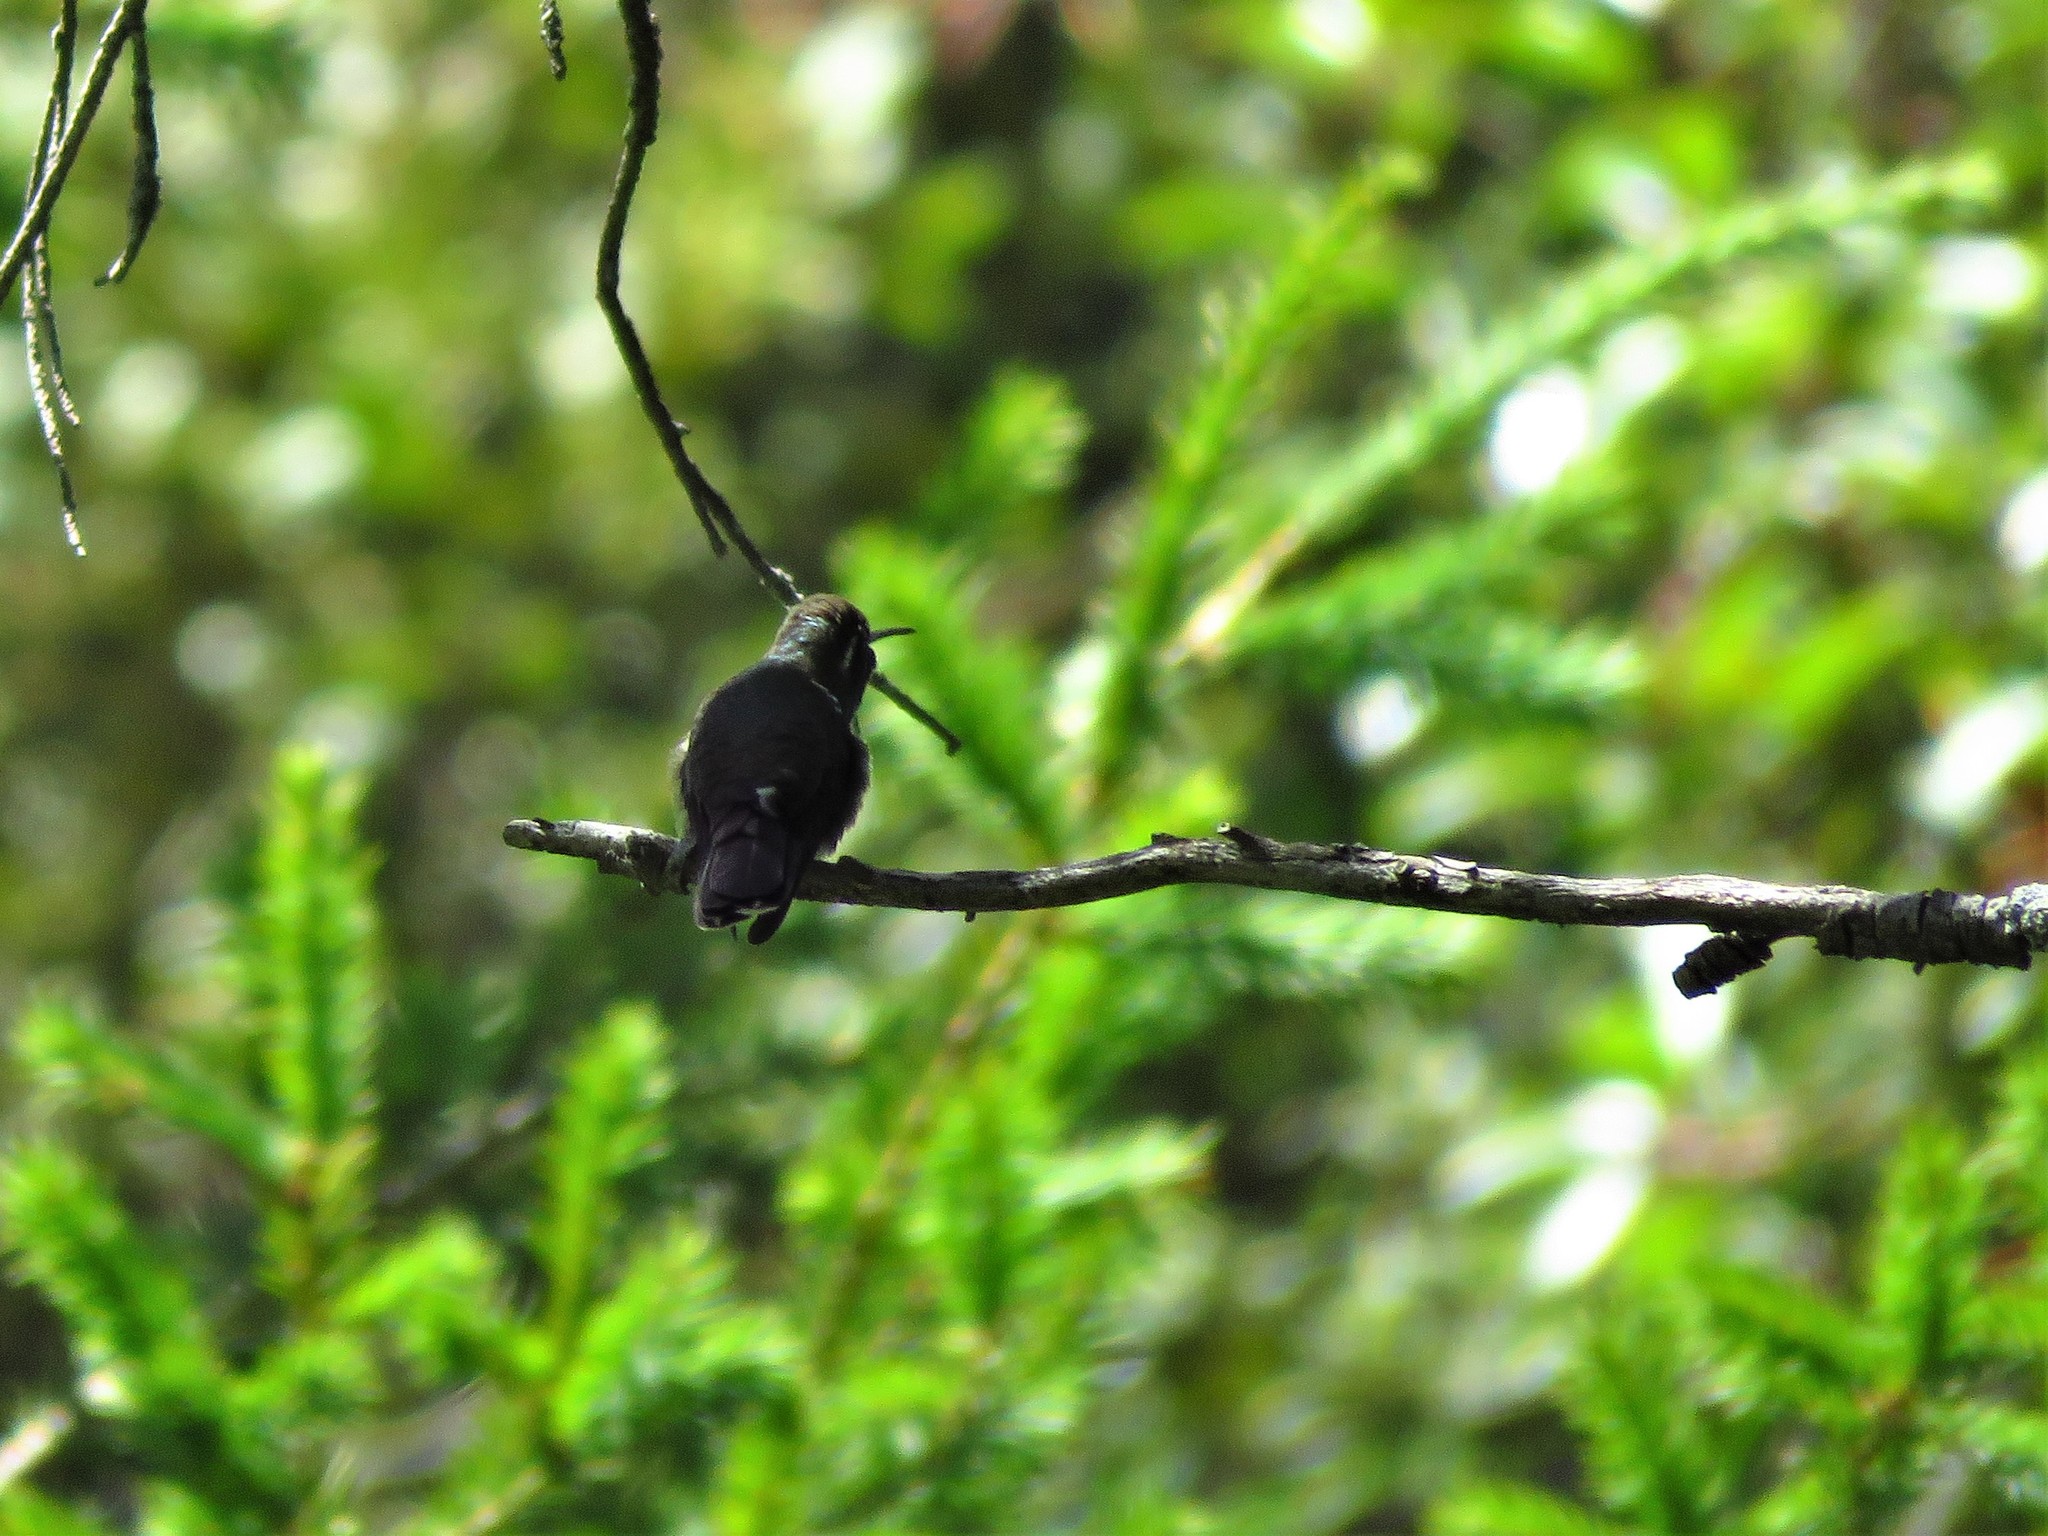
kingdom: Animalia
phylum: Chordata
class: Aves
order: Apodiformes
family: Trochilidae
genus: Basilinna
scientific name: Basilinna leucotis
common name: White-eared hummingbird
